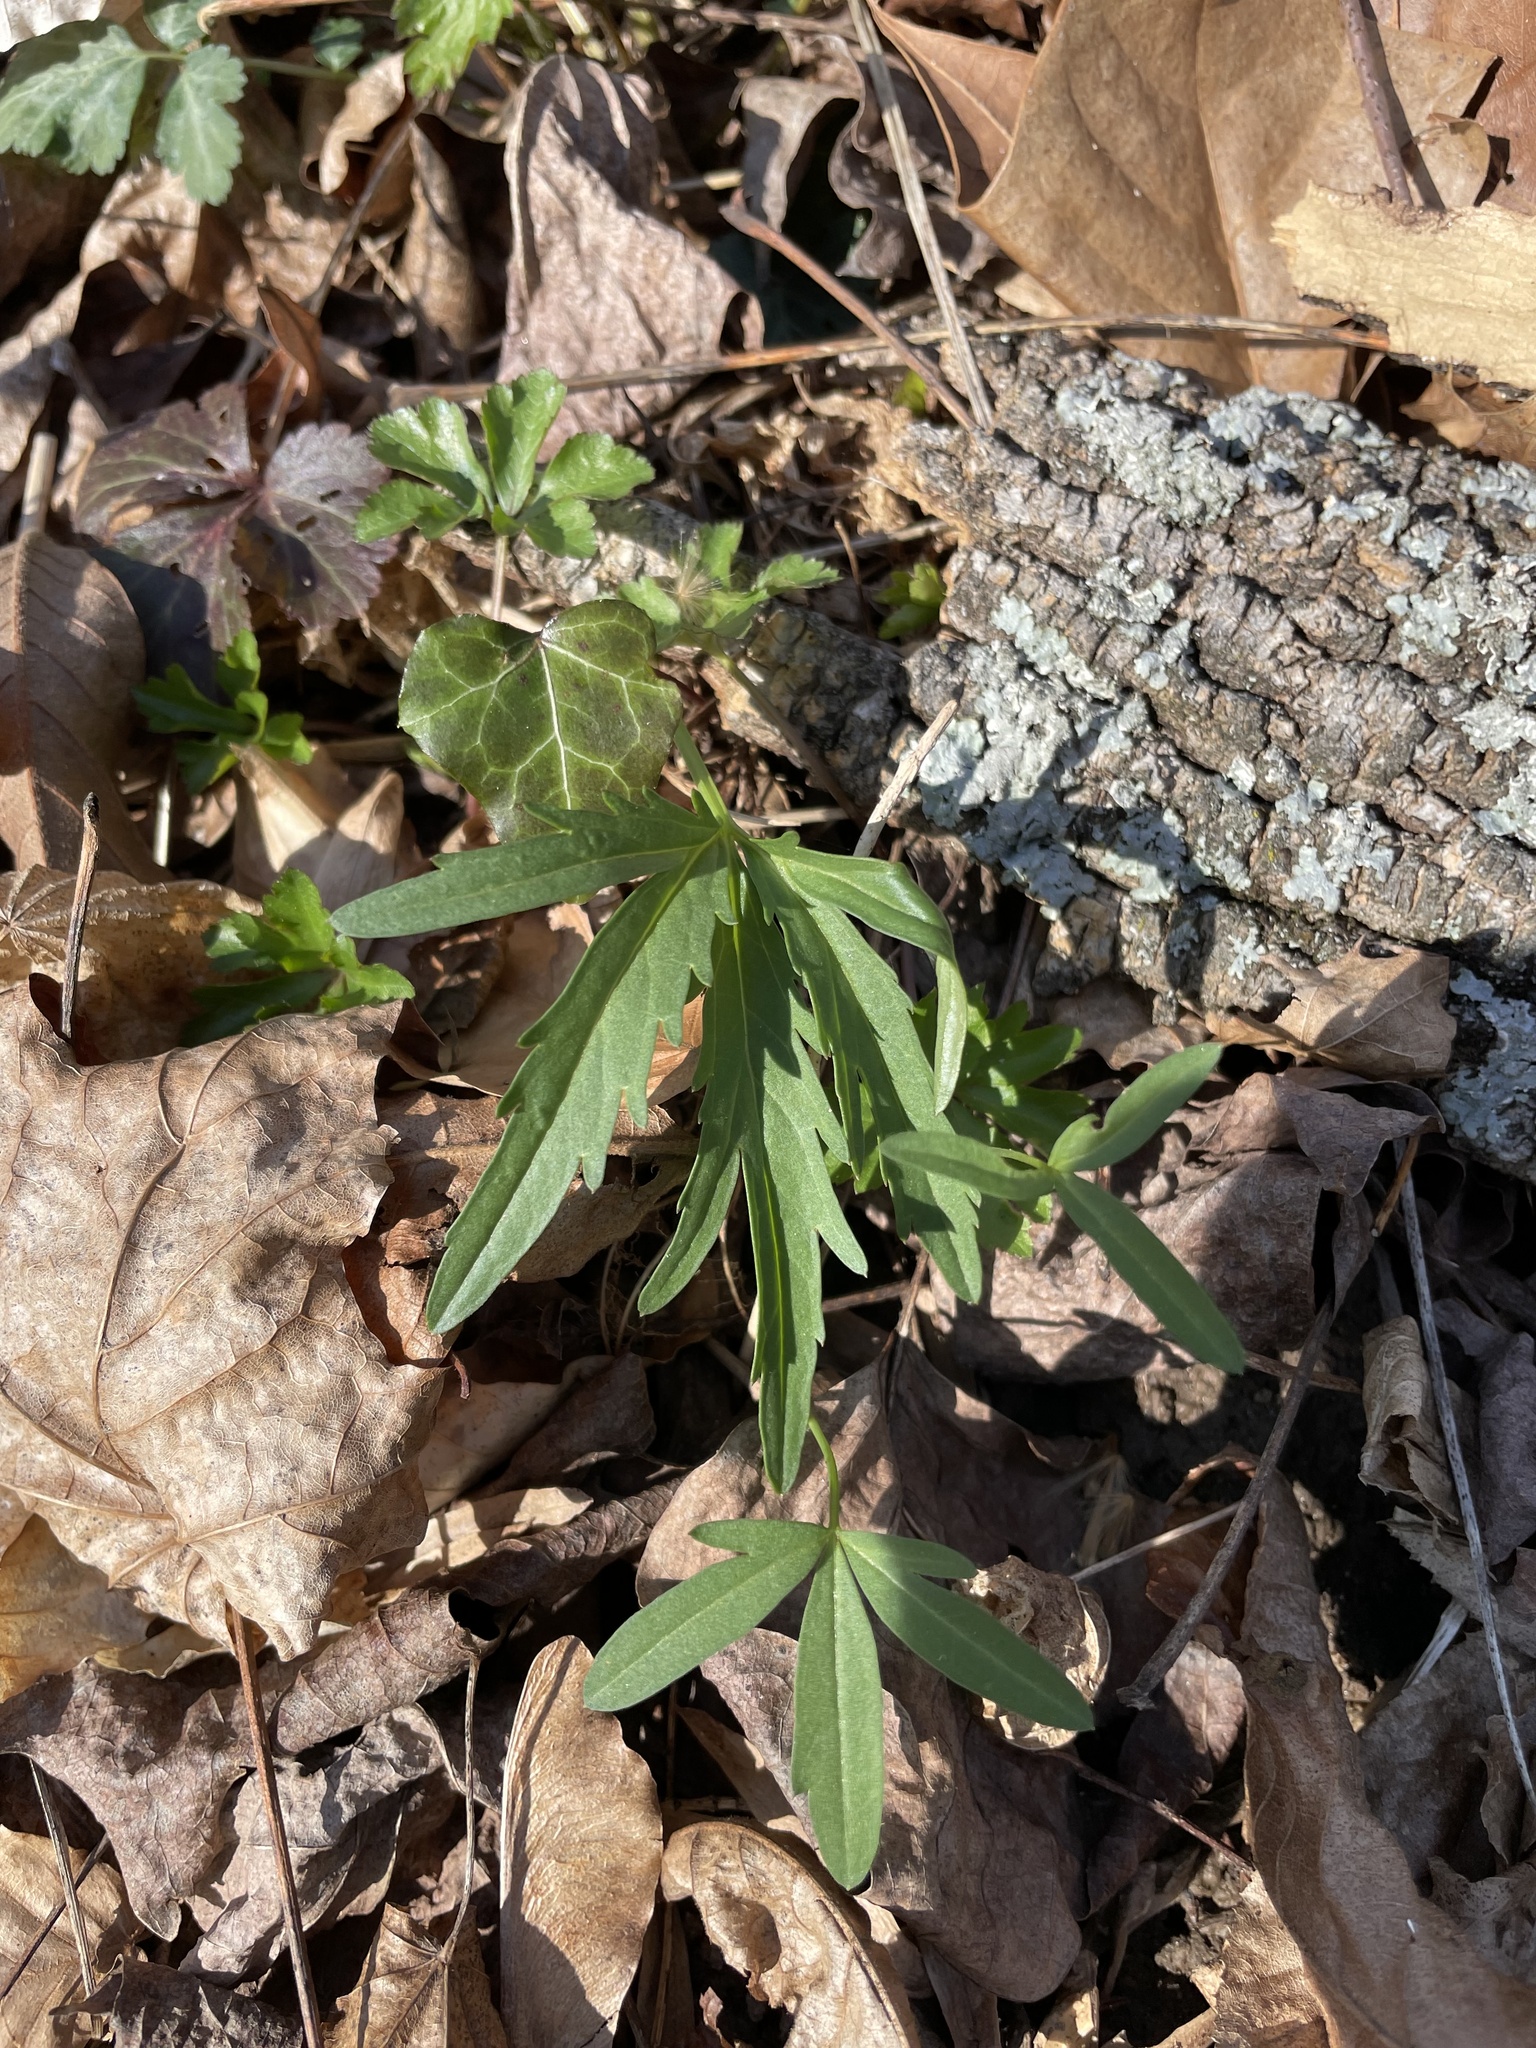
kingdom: Plantae
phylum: Tracheophyta
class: Magnoliopsida
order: Brassicales
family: Brassicaceae
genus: Cardamine
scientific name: Cardamine concatenata
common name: Cut-leaf toothcup
